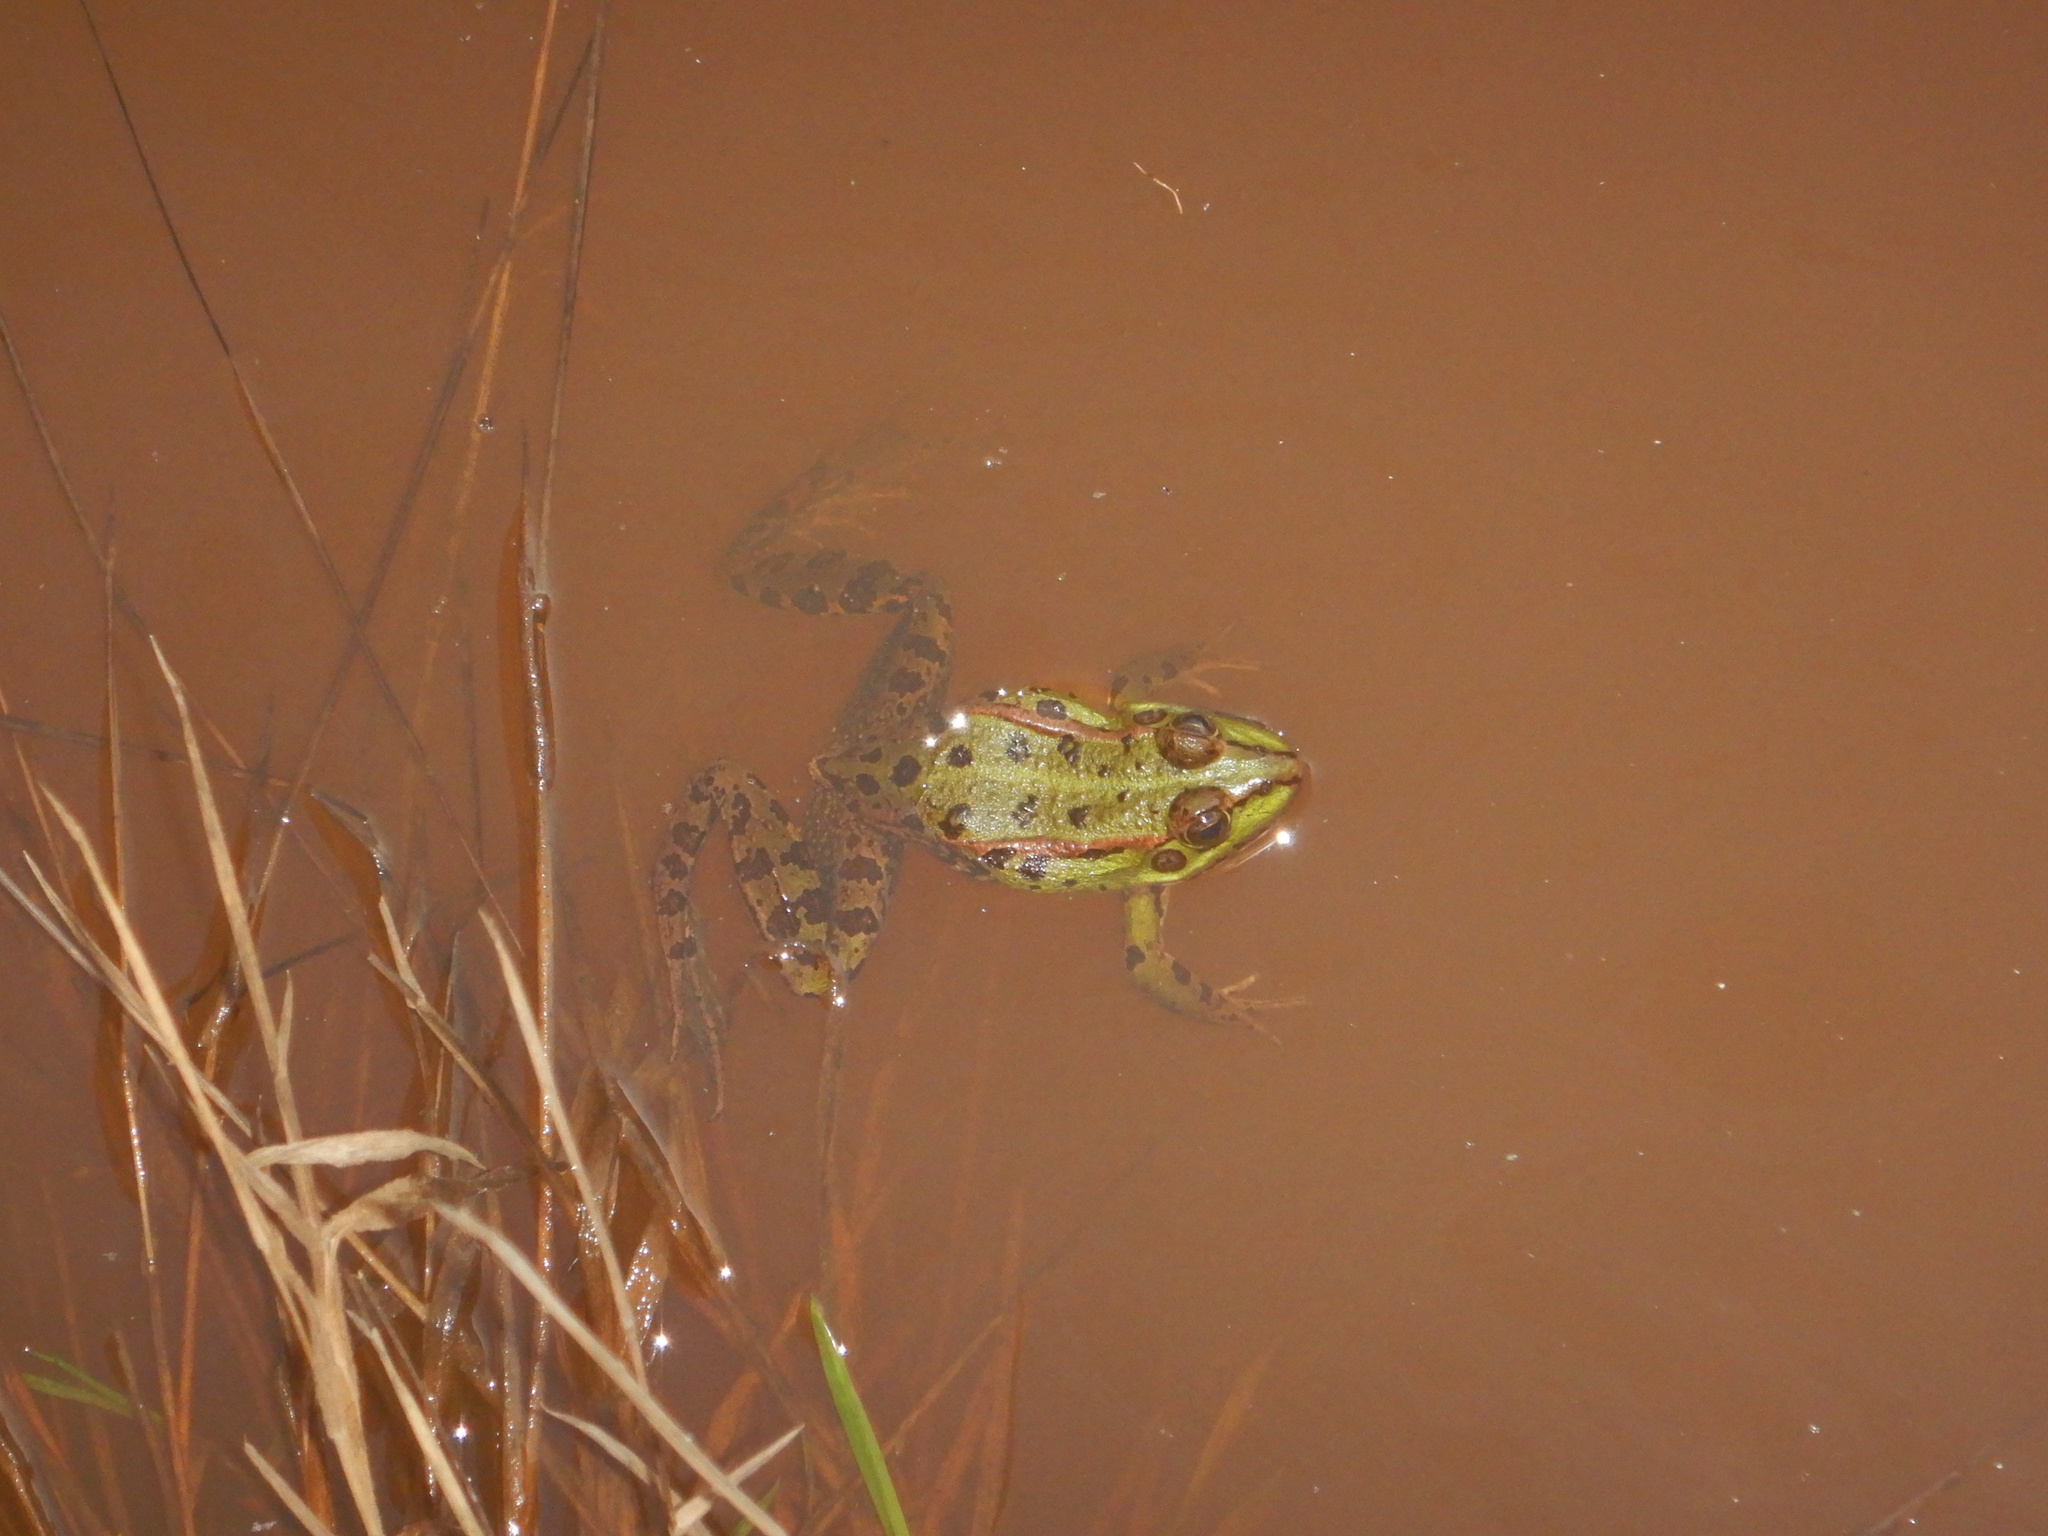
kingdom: Animalia
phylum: Chordata
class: Amphibia
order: Anura
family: Ranidae
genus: Pelophylax
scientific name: Pelophylax perezi
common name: Perez's frog
